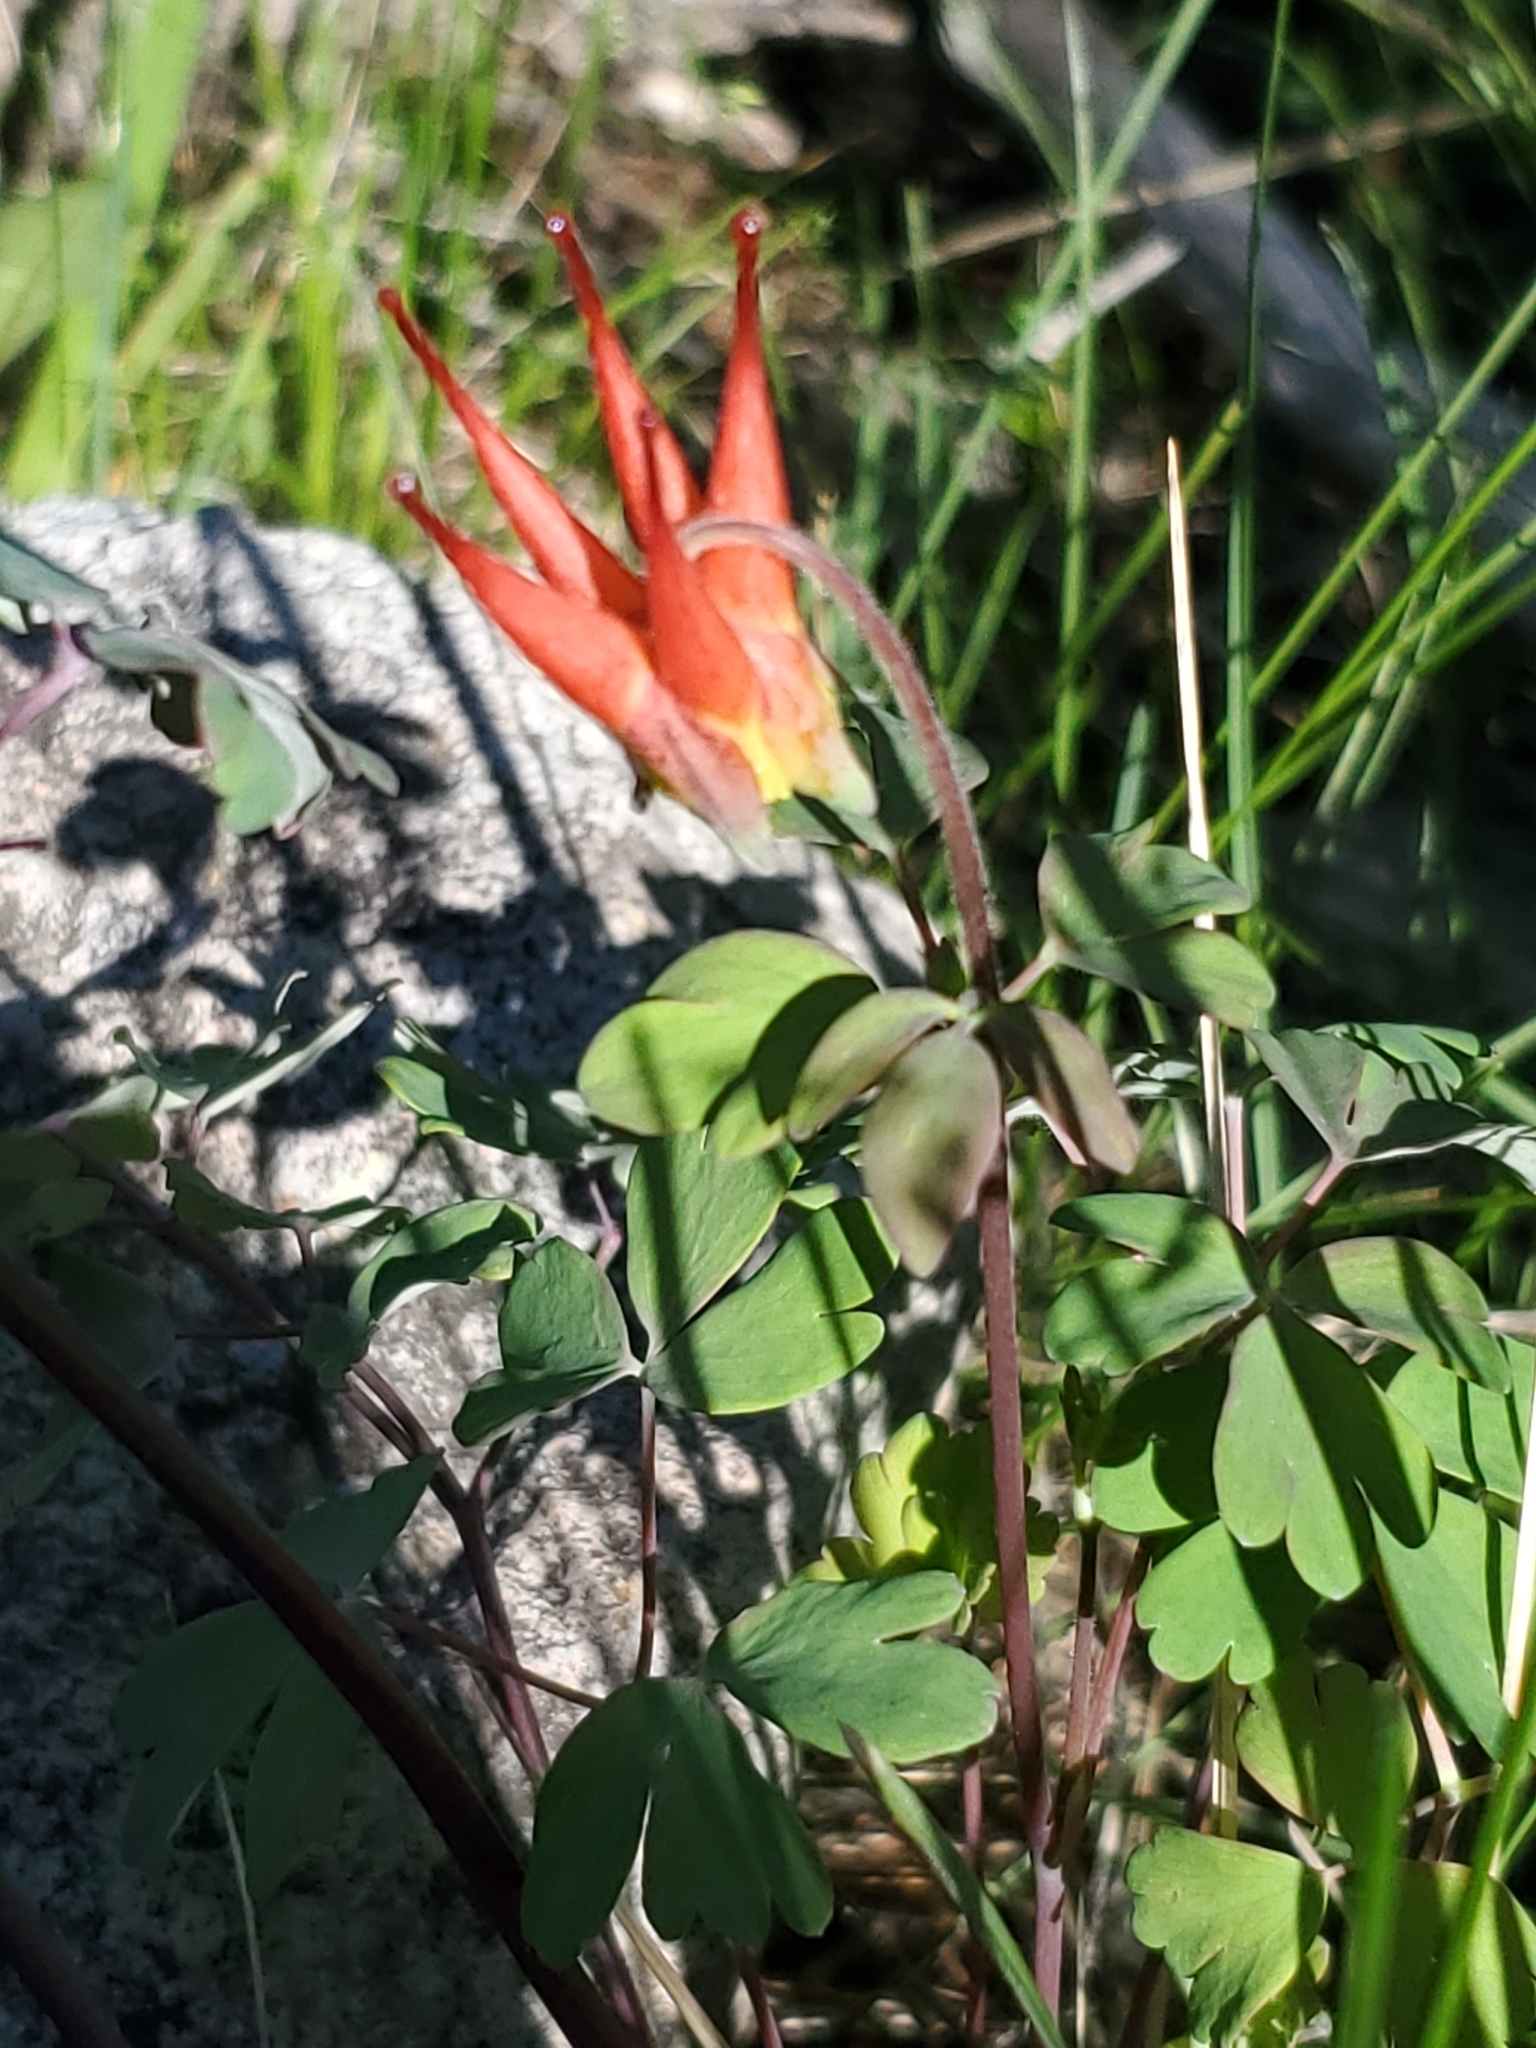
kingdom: Plantae
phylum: Tracheophyta
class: Magnoliopsida
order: Ranunculales
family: Ranunculaceae
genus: Aquilegia
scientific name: Aquilegia elegantula
